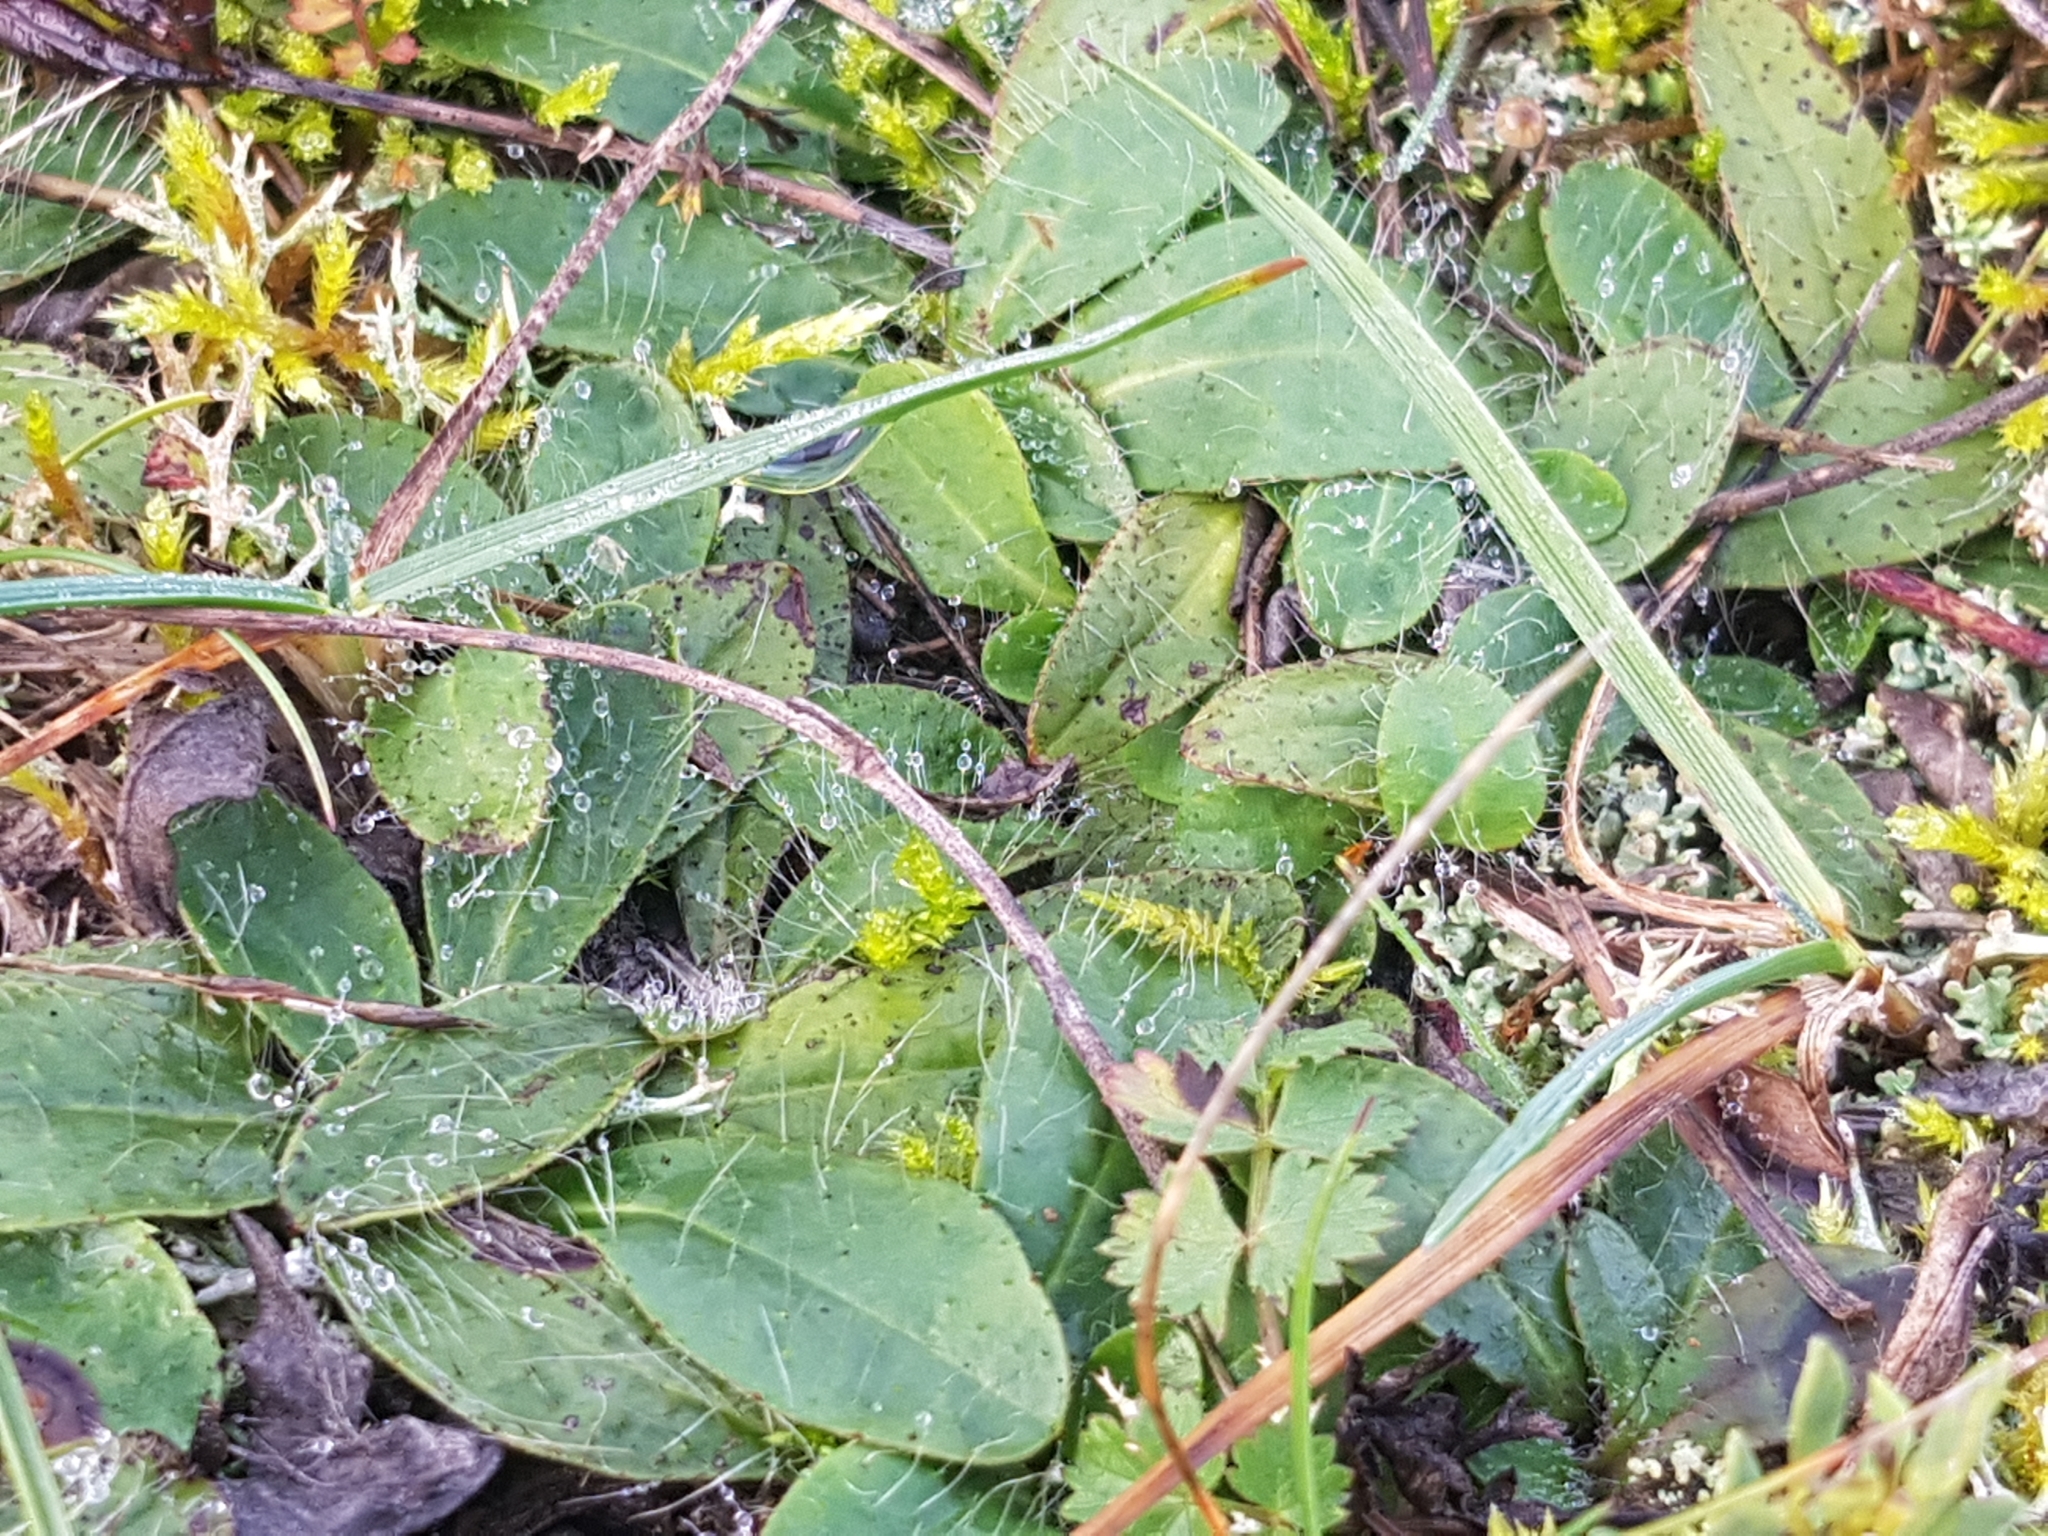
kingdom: Plantae
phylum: Tracheophyta
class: Magnoliopsida
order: Asterales
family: Asteraceae
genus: Pilosella
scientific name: Pilosella officinarum
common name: Mouse-ear hawkweed
